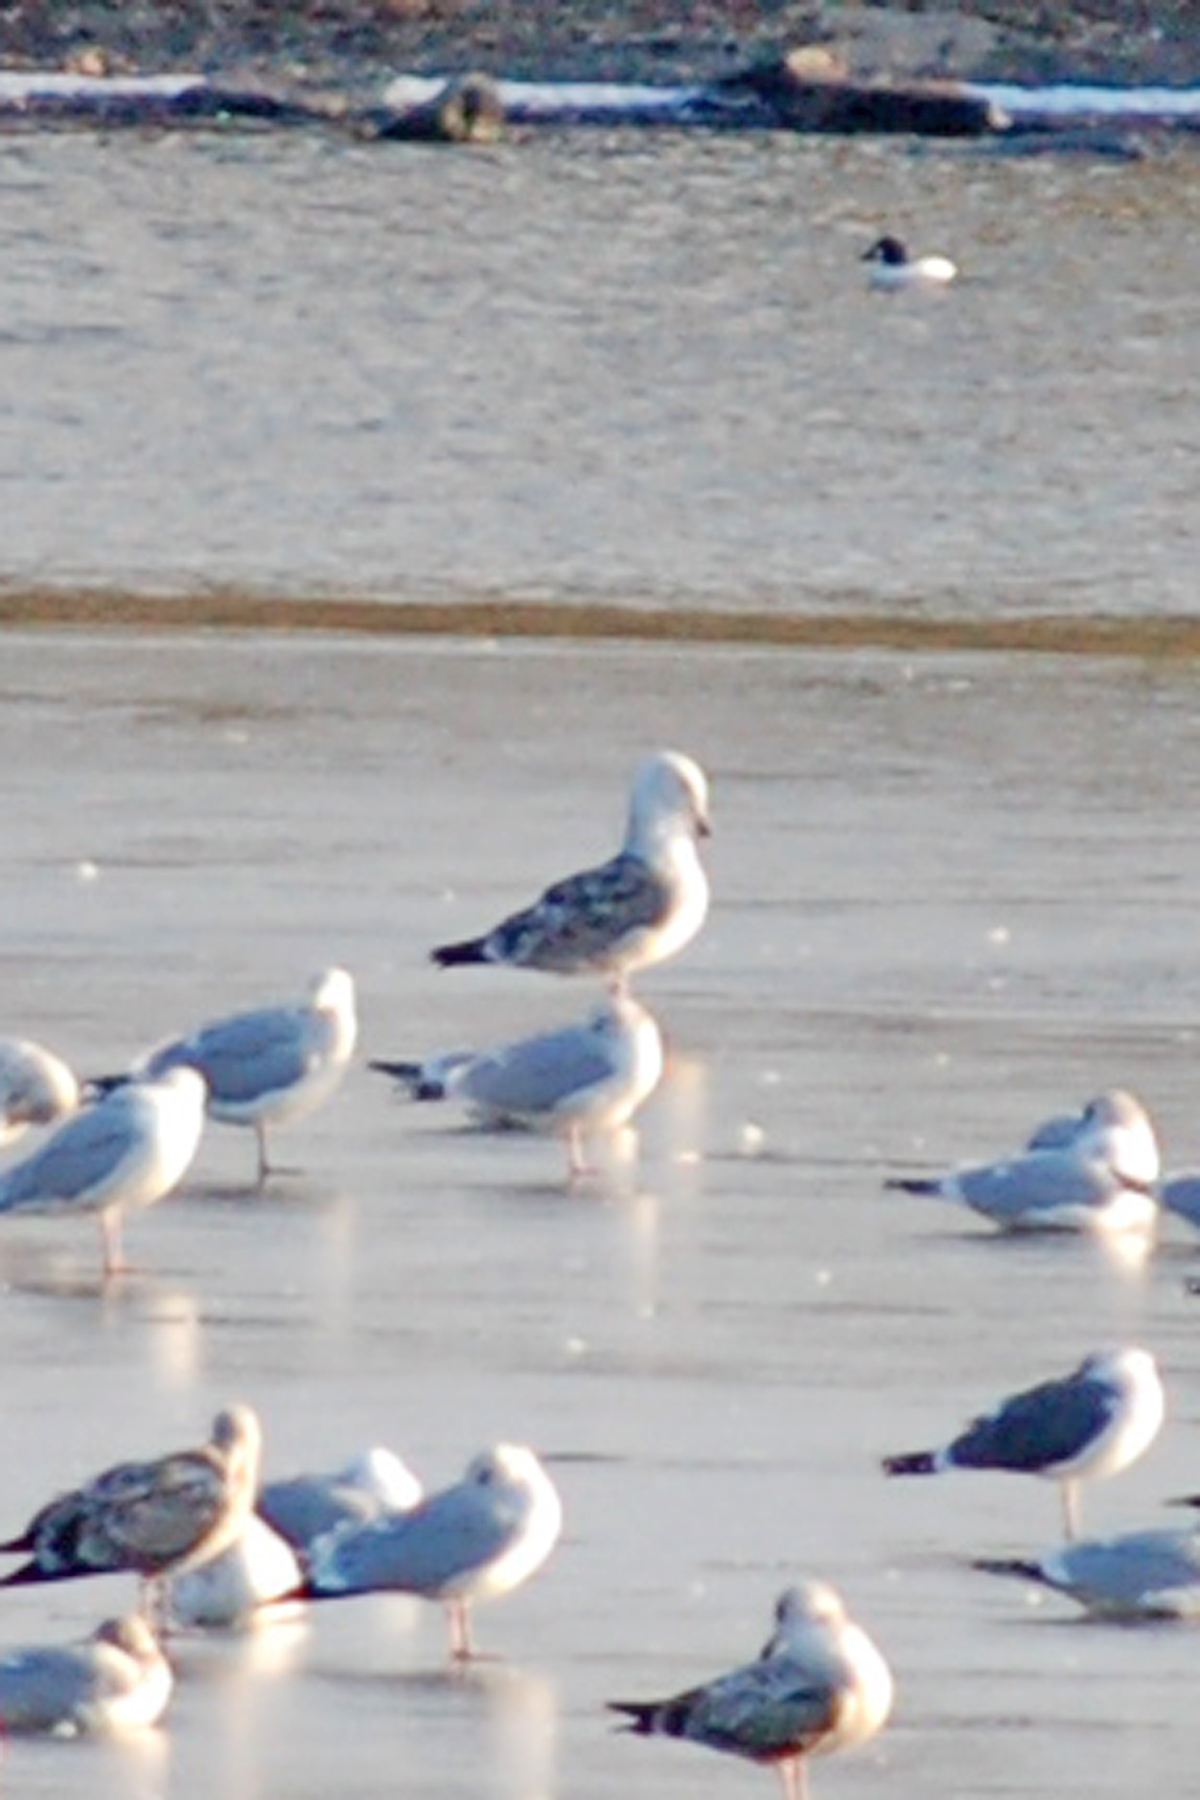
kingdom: Animalia
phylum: Chordata
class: Aves
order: Charadriiformes
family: Laridae
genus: Larus
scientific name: Larus marinus
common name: Great black-backed gull
